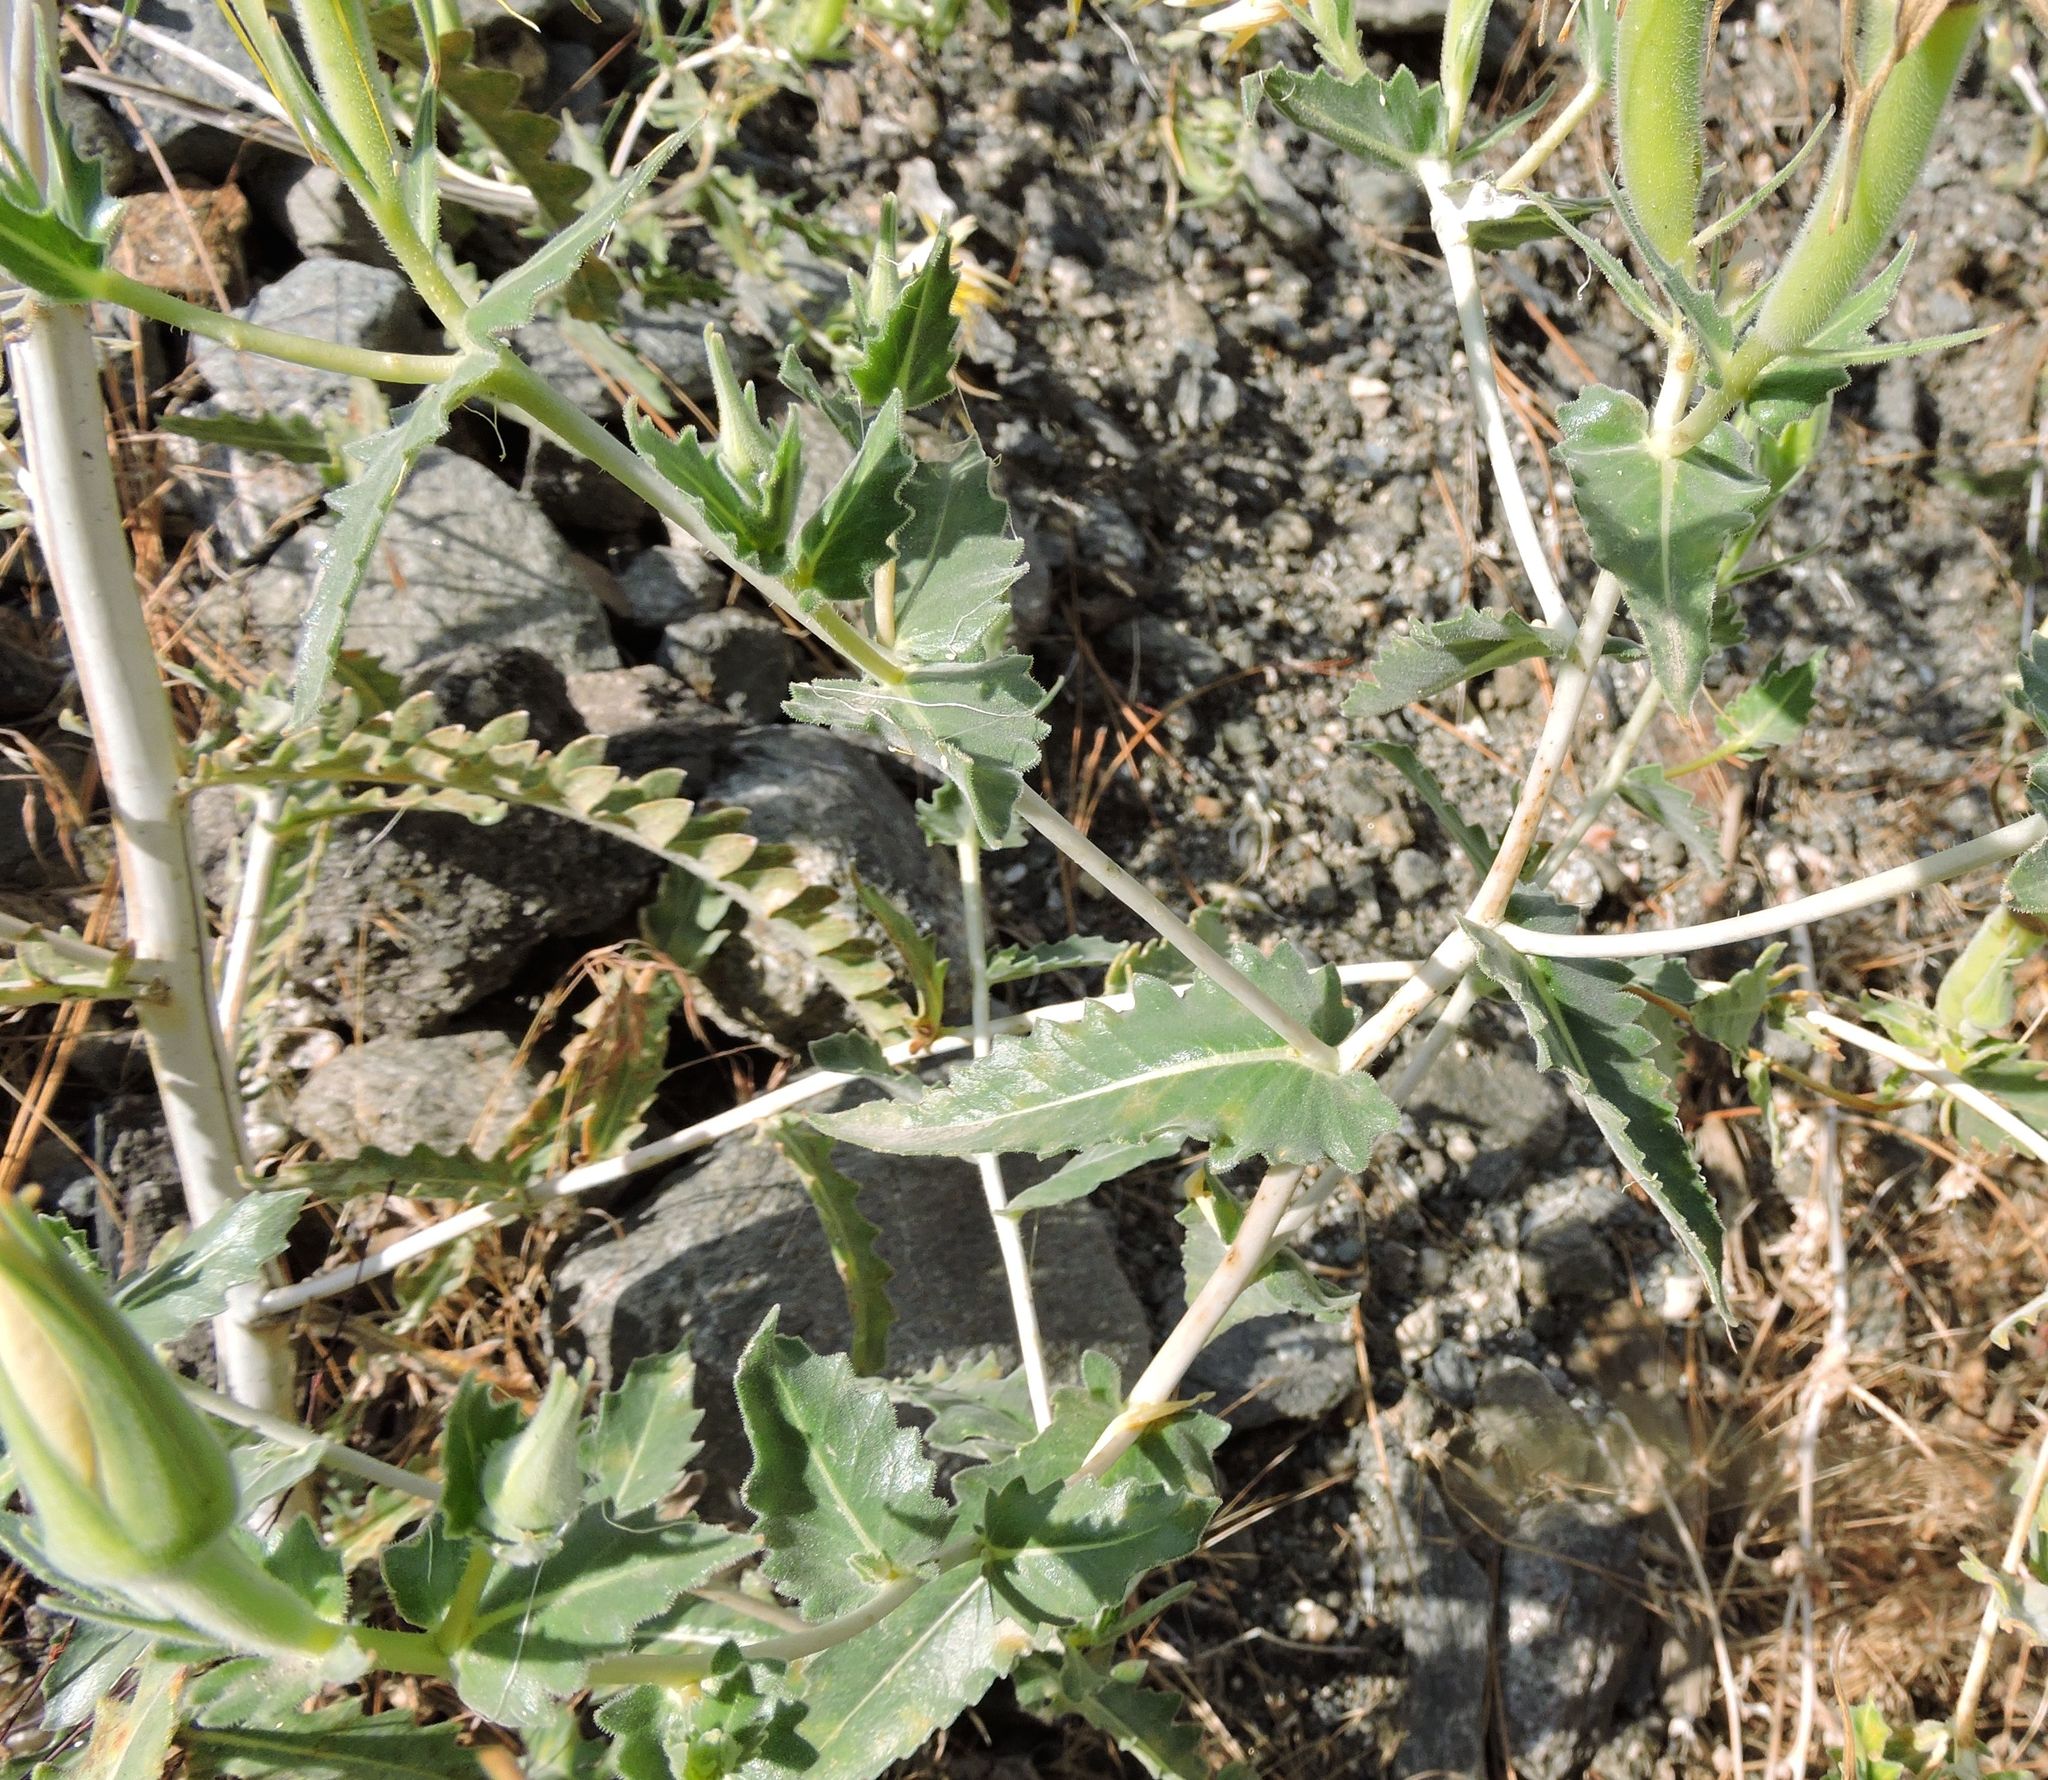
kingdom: Plantae
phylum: Tracheophyta
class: Magnoliopsida
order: Cornales
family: Loasaceae
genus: Mentzelia
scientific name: Mentzelia laevicaulis
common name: Smooth-stem blazingstar
